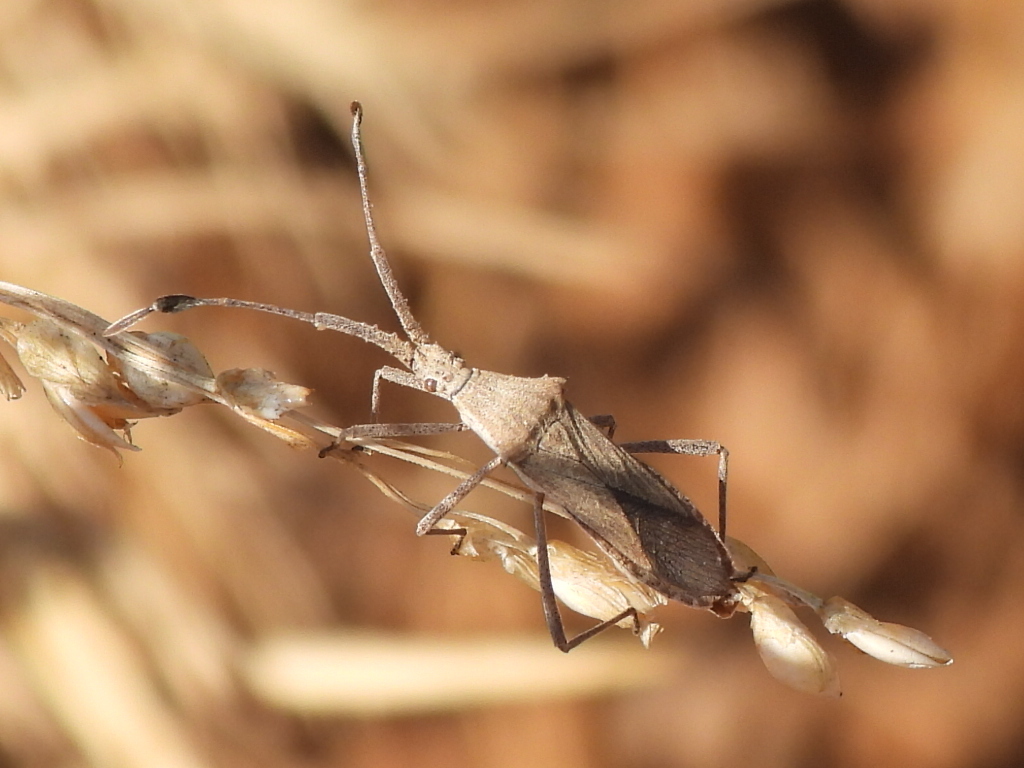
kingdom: Animalia
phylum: Arthropoda
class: Insecta
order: Hemiptera
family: Coreidae
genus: Chariesterus
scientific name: Chariesterus antennator
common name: Flat horned coreid
